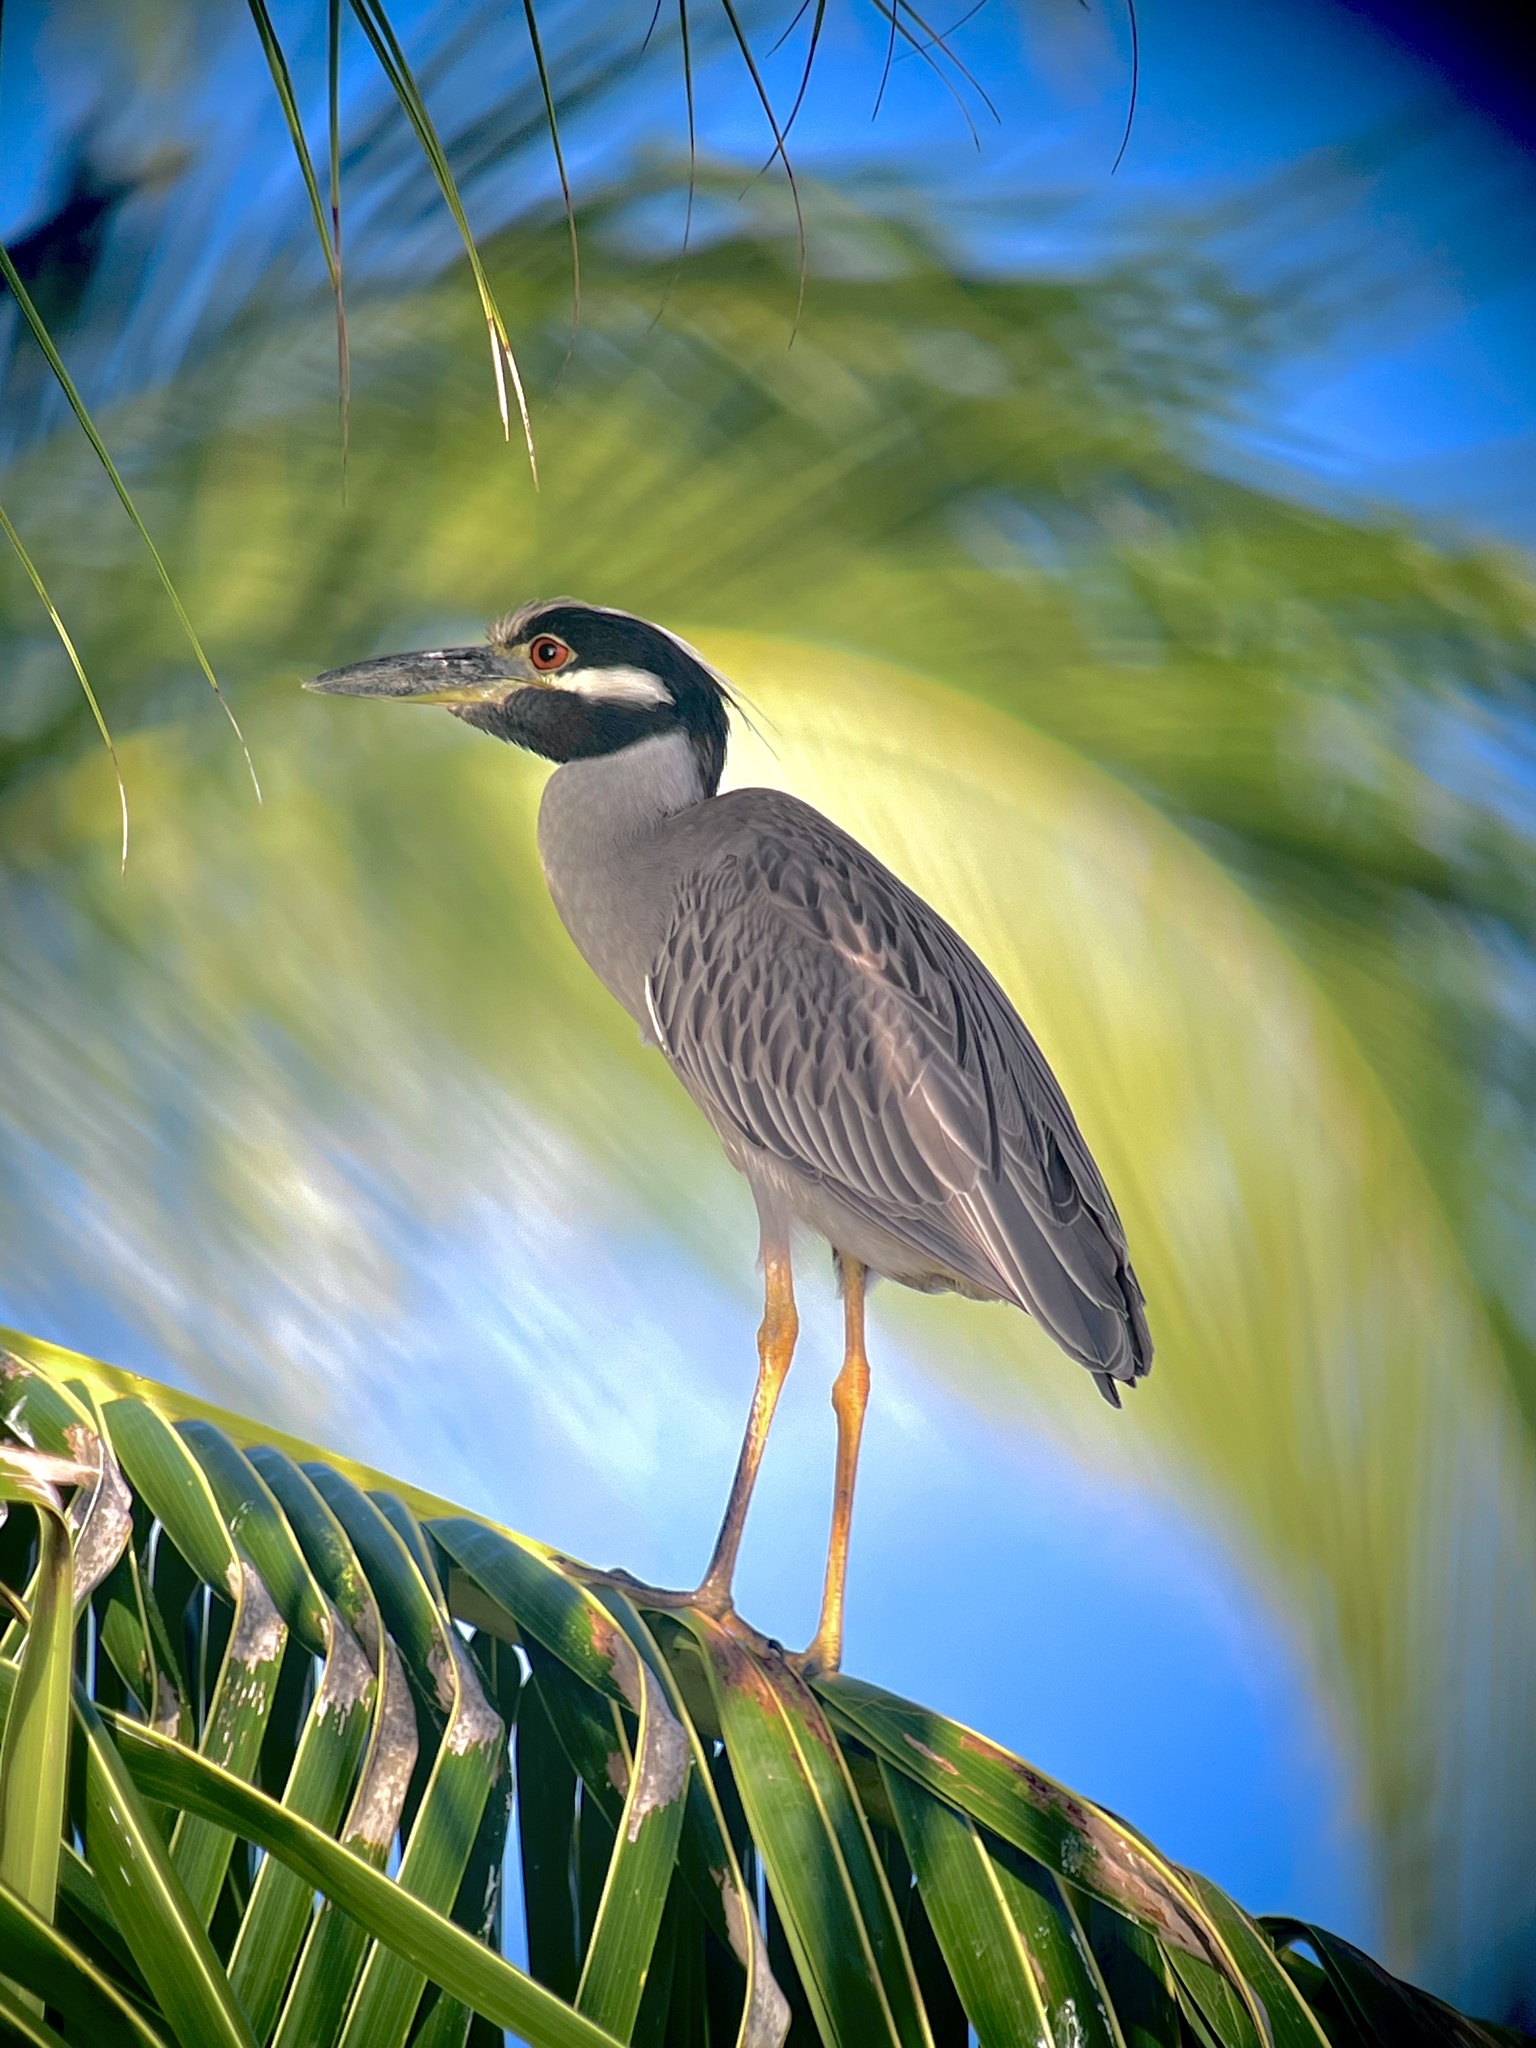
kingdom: Animalia
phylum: Chordata
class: Aves
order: Pelecaniformes
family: Ardeidae
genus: Nyctanassa
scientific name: Nyctanassa violacea
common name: Yellow-crowned night heron
